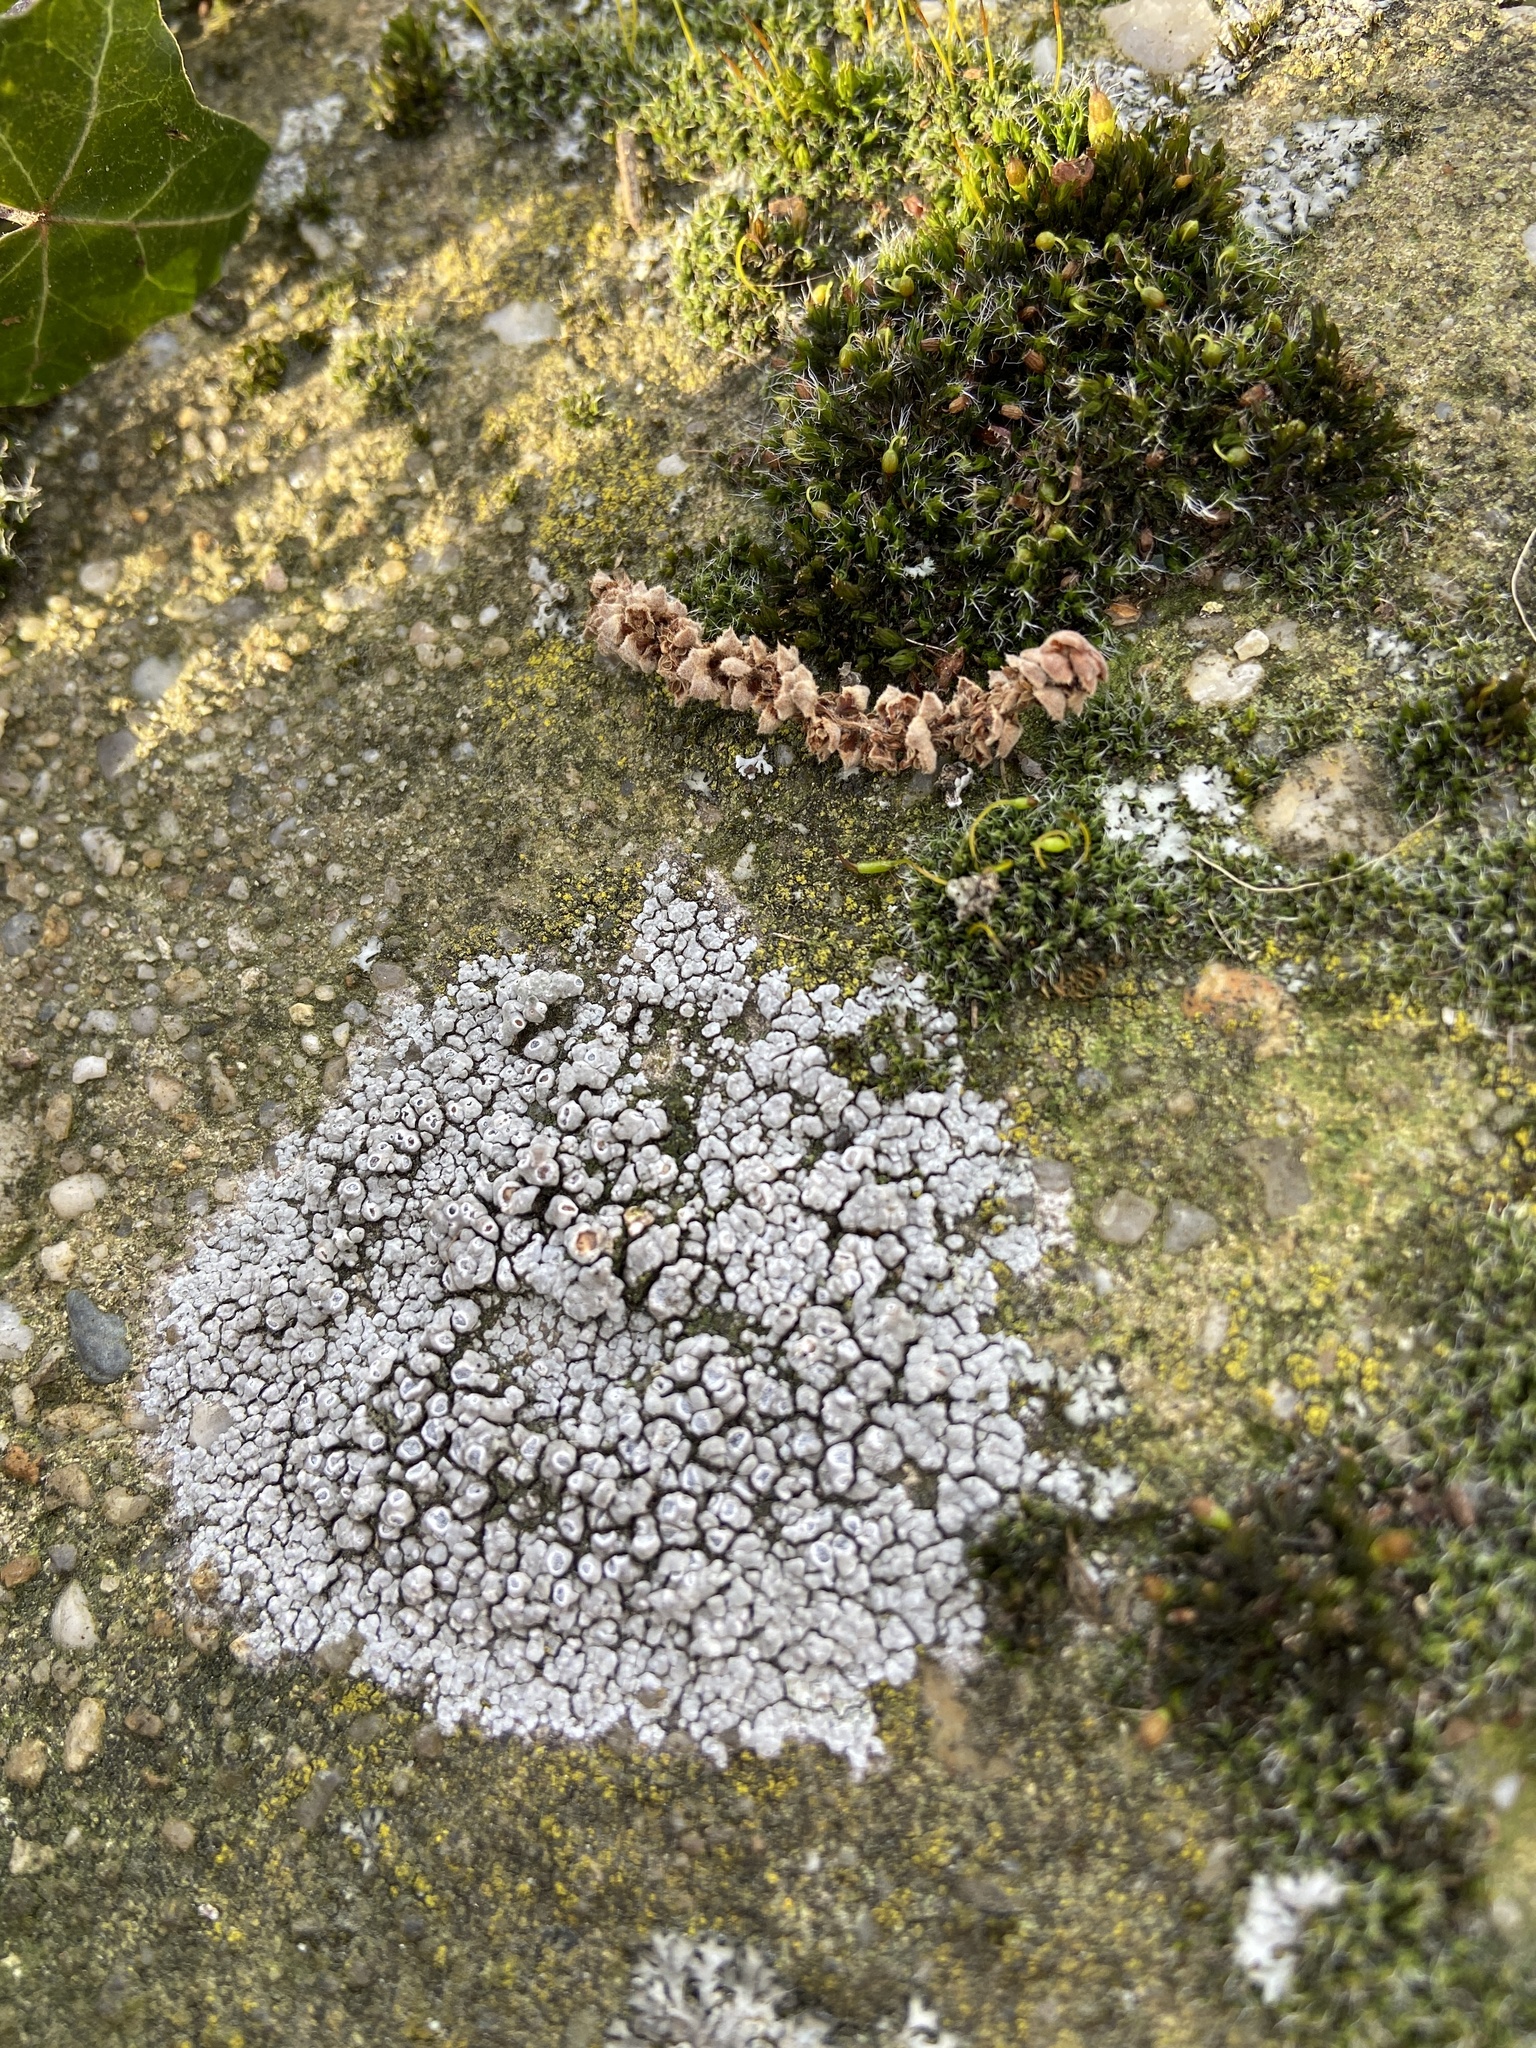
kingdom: Fungi
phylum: Ascomycota
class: Lecanoromycetes
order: Pertusariales
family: Megasporaceae
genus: Circinaria
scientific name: Circinaria contorta
